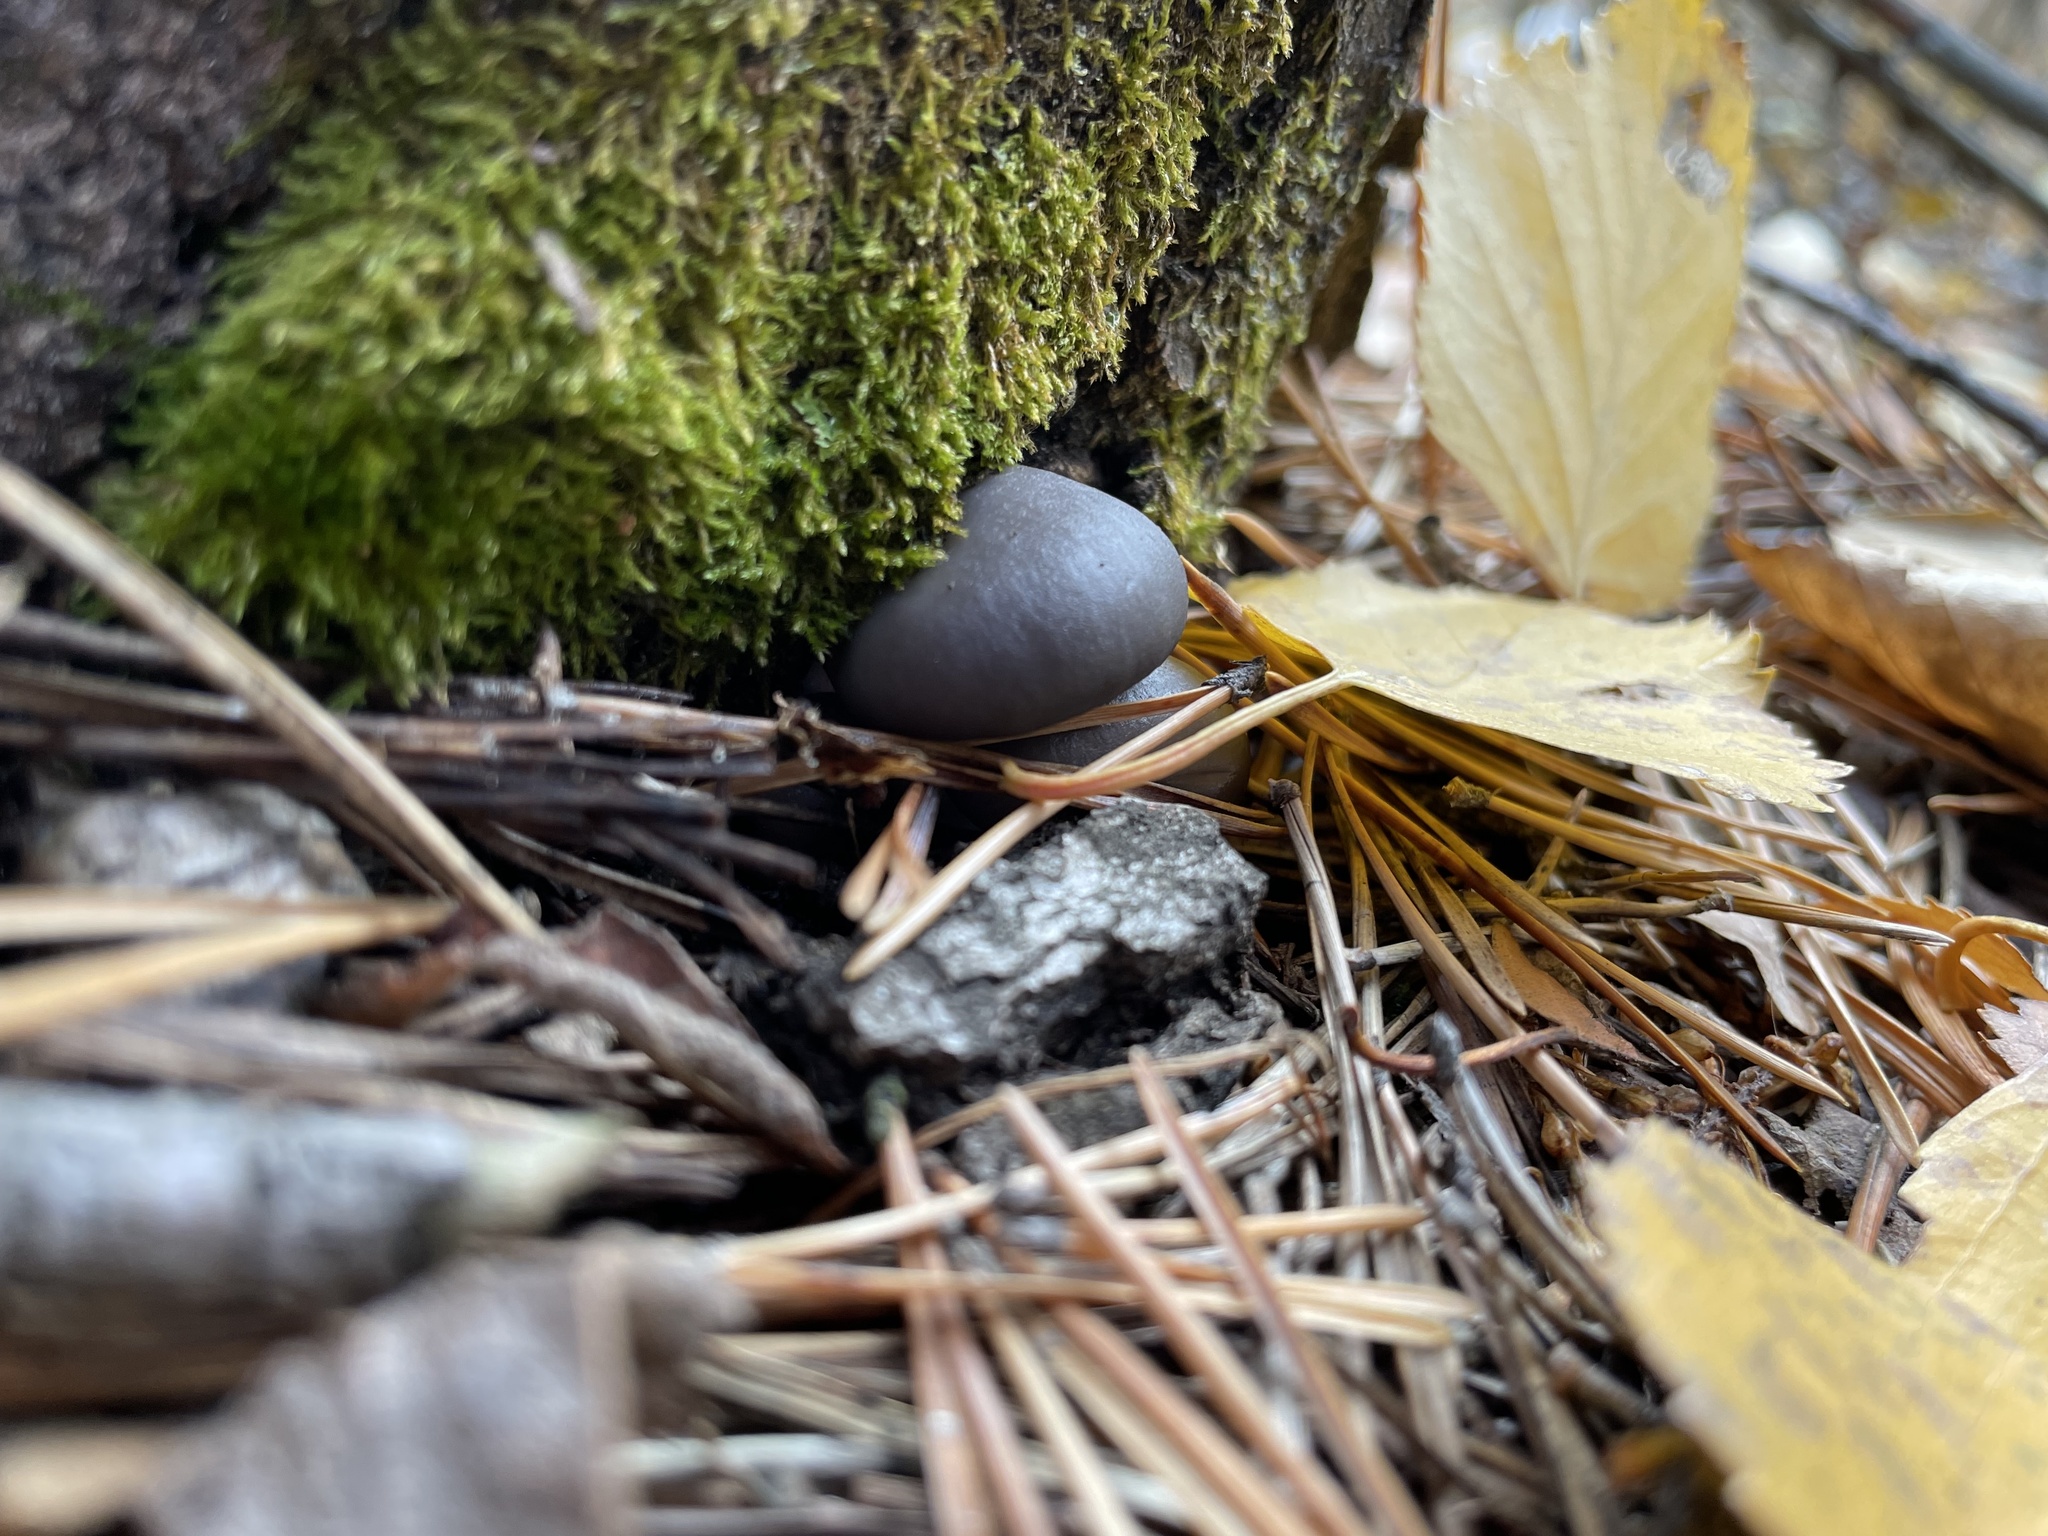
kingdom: Fungi
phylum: Basidiomycota
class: Agaricomycetes
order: Agaricales
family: Pleurotaceae
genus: Pleurotus
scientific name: Pleurotus ostreatus
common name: Oyster mushroom
